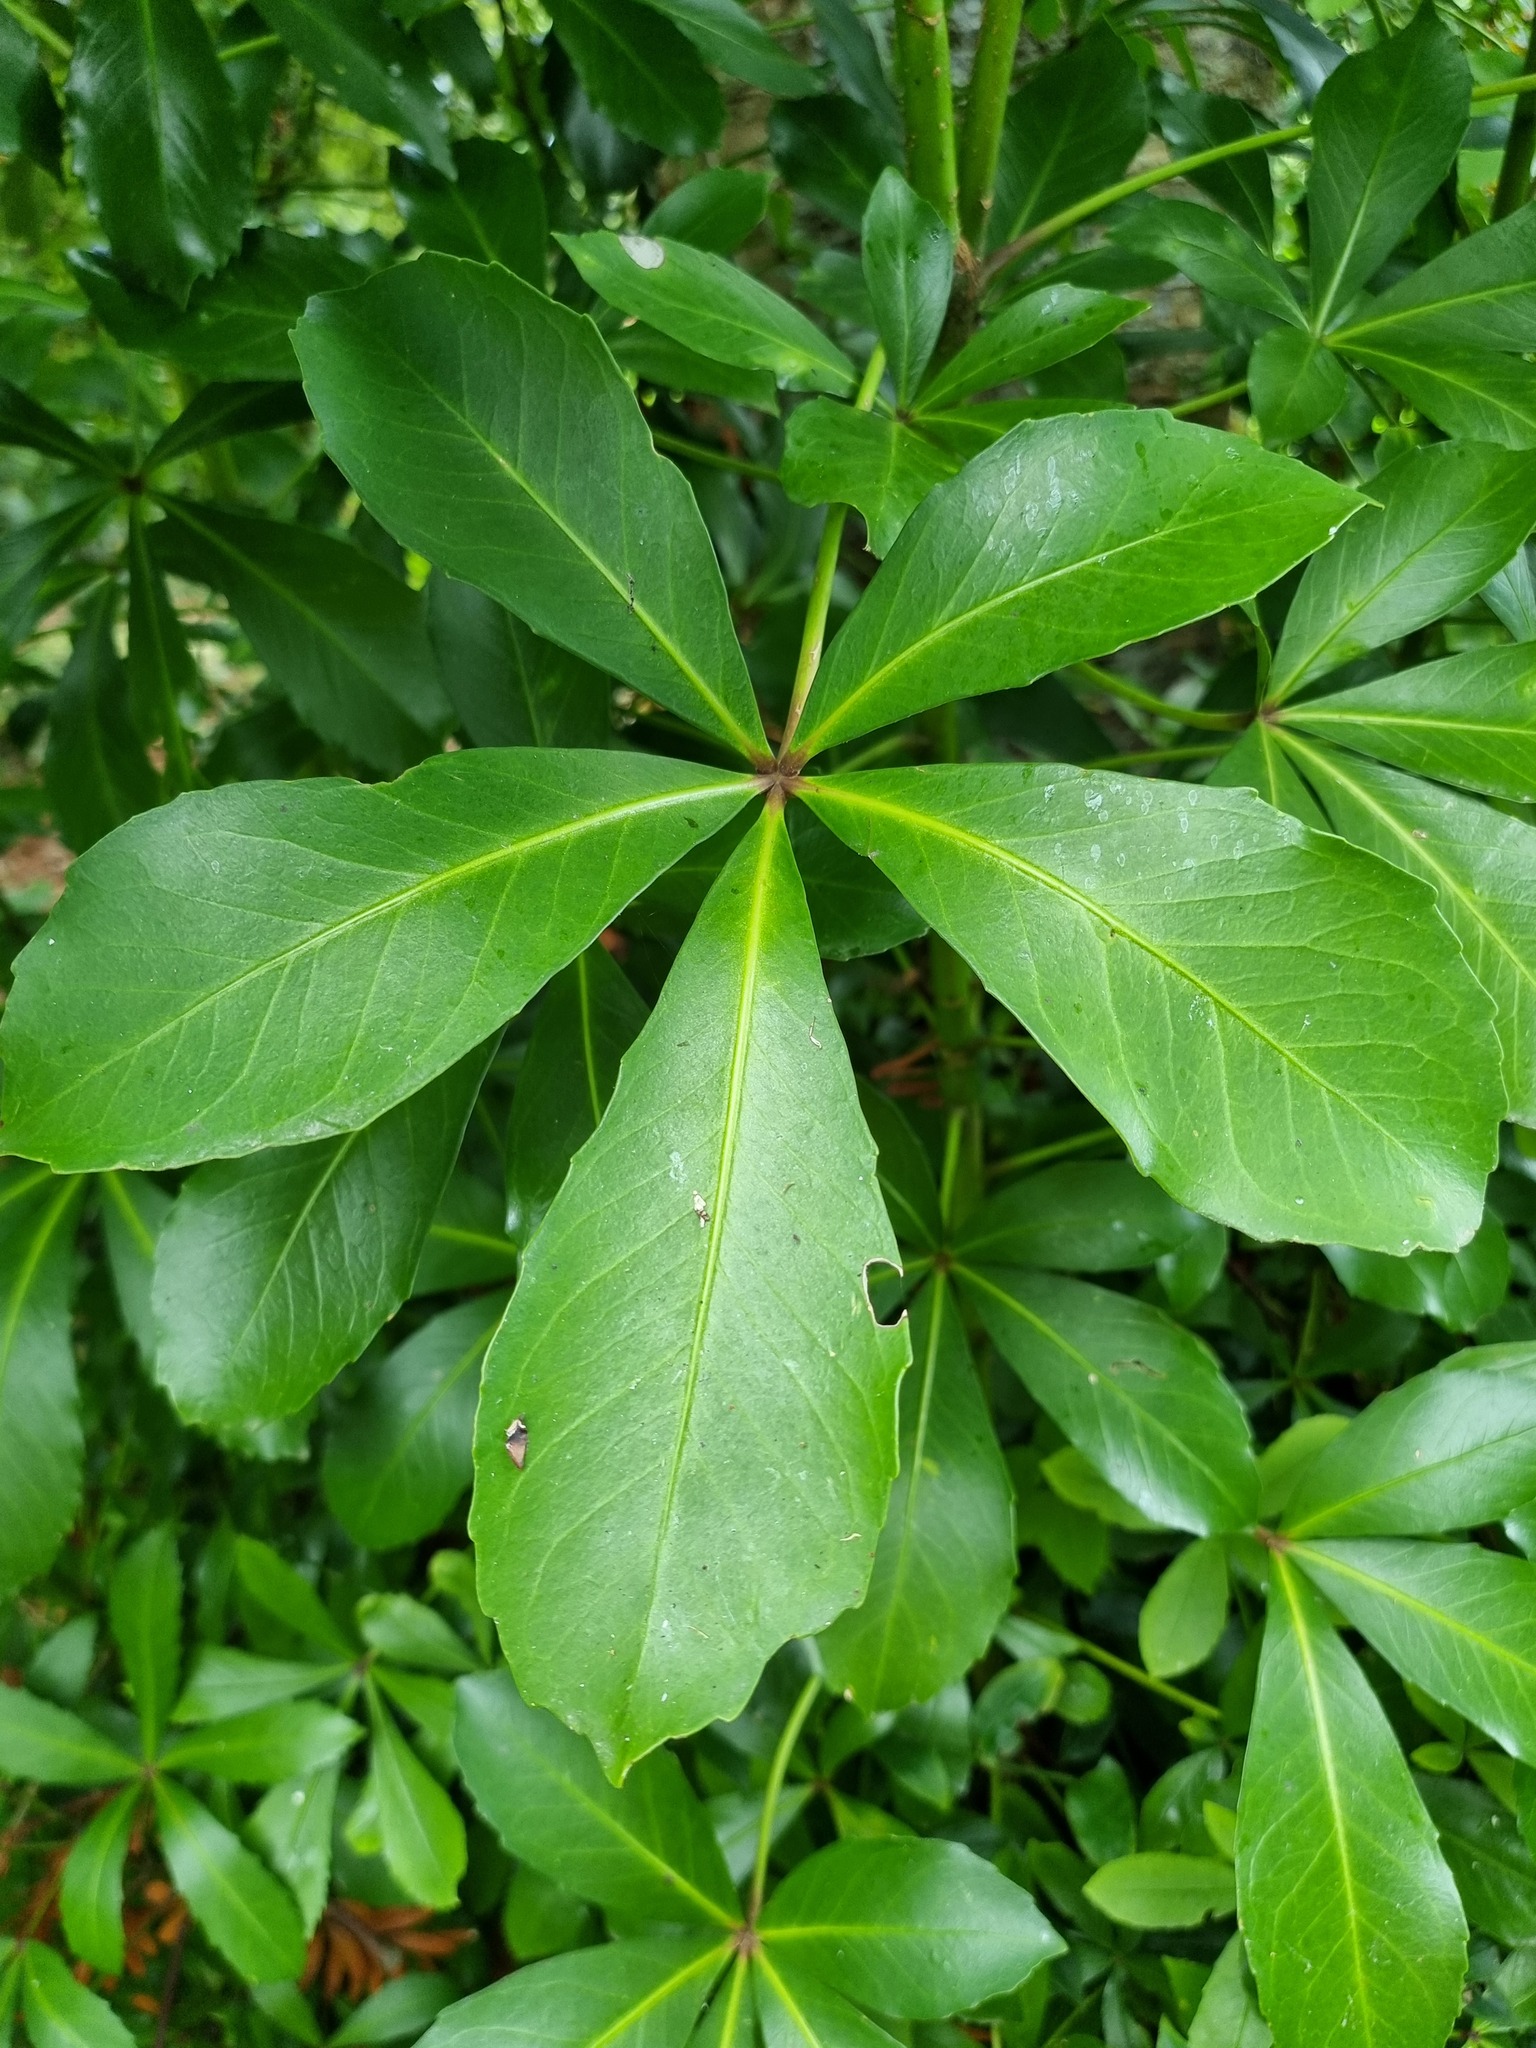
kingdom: Plantae
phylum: Tracheophyta
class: Magnoliopsida
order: Apiales
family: Araliaceae
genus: Pseudopanax
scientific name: Pseudopanax lessonii
